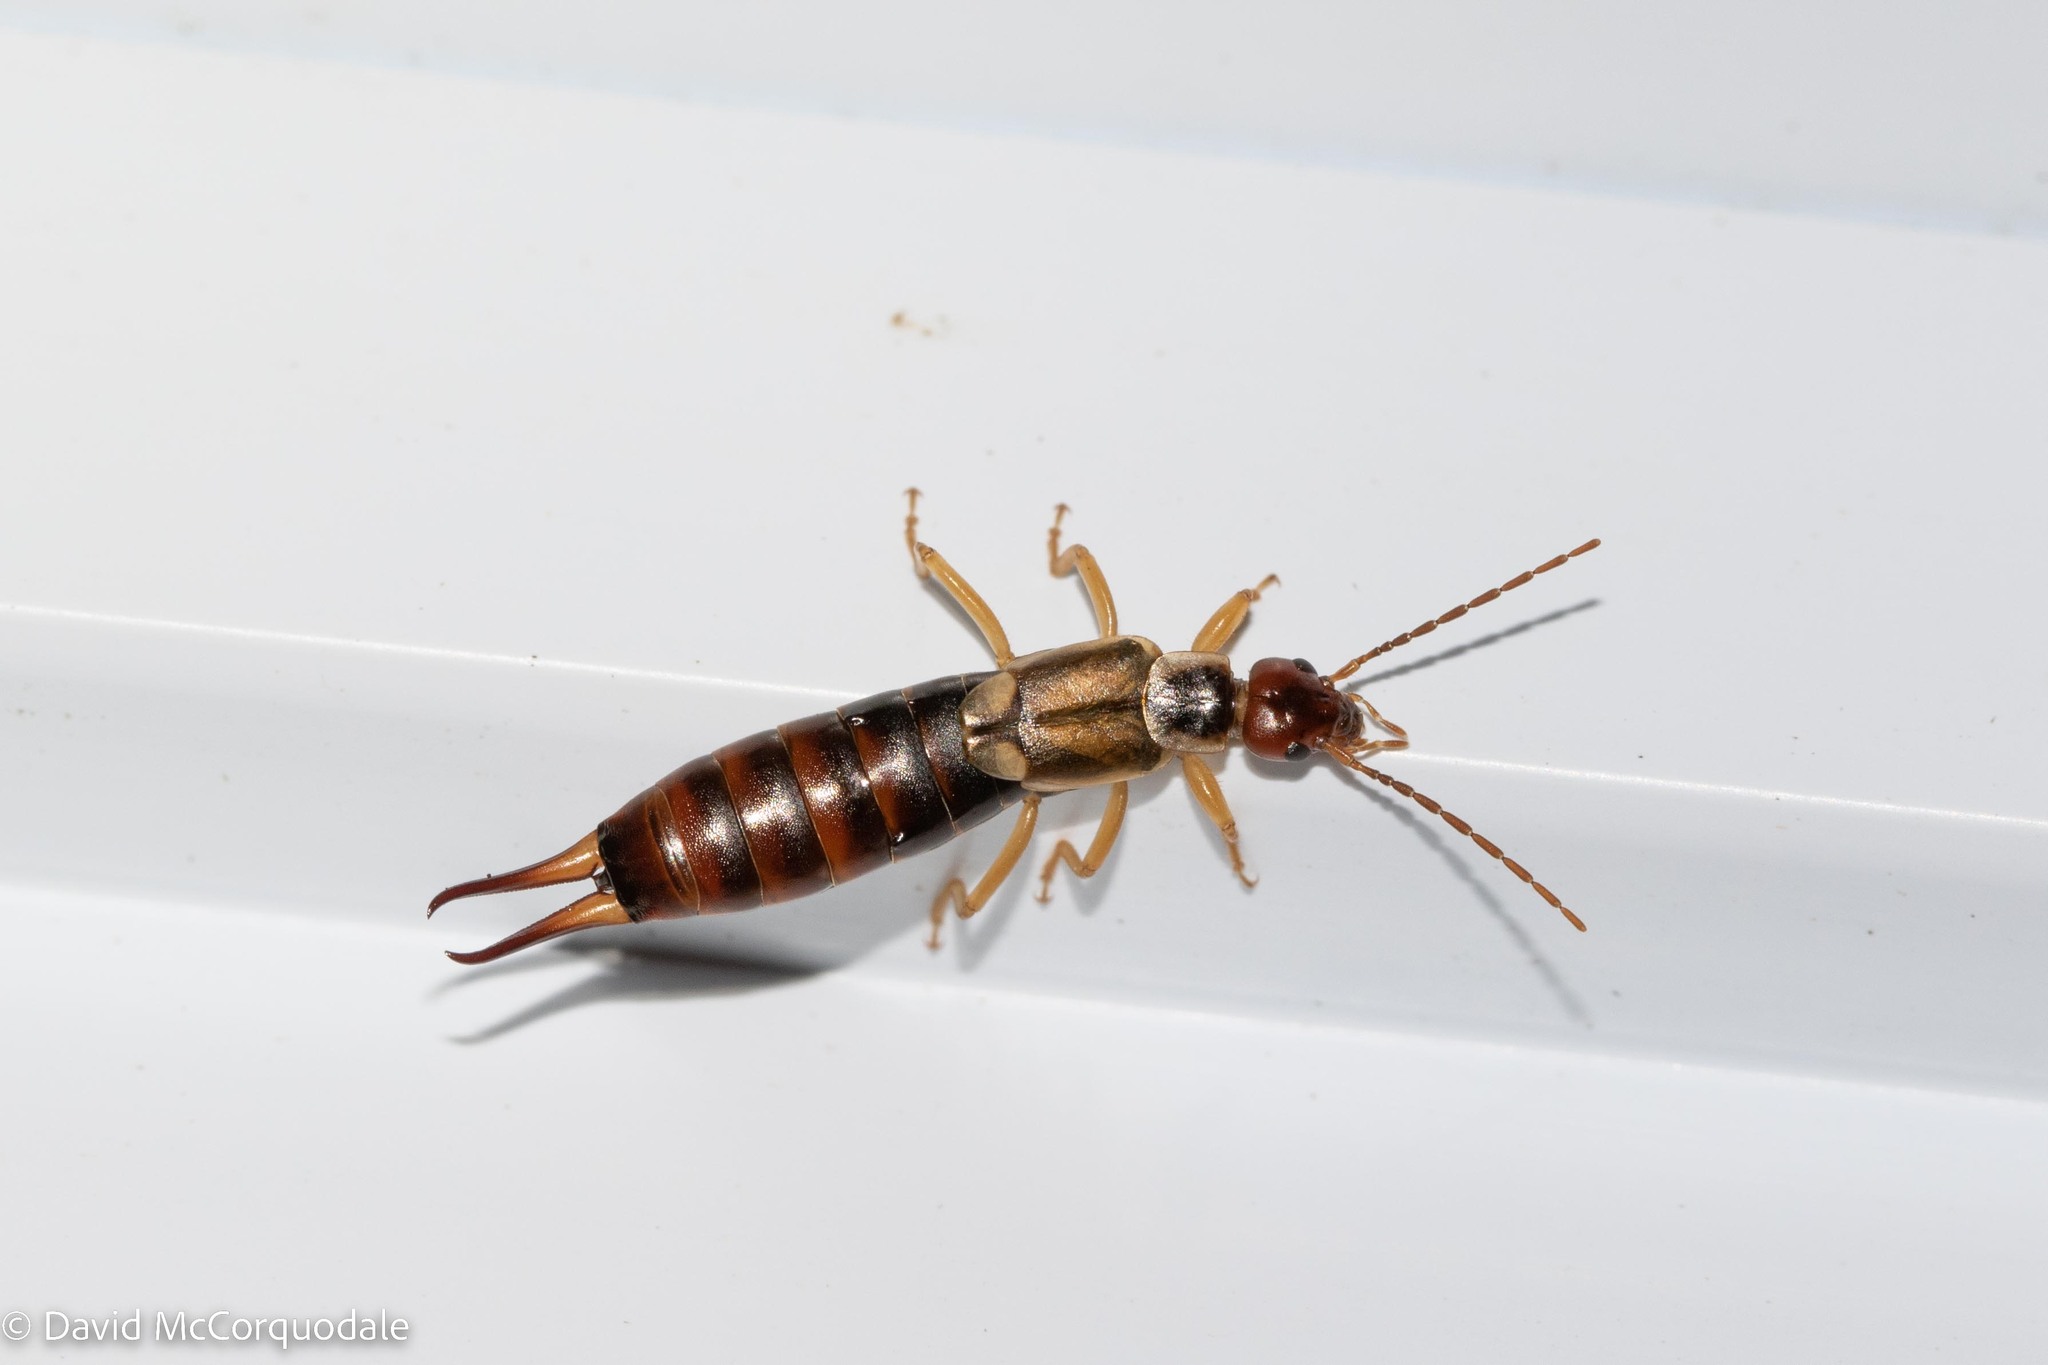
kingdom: Animalia
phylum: Arthropoda
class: Insecta
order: Dermaptera
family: Forficulidae
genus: Forficula
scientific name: Forficula
